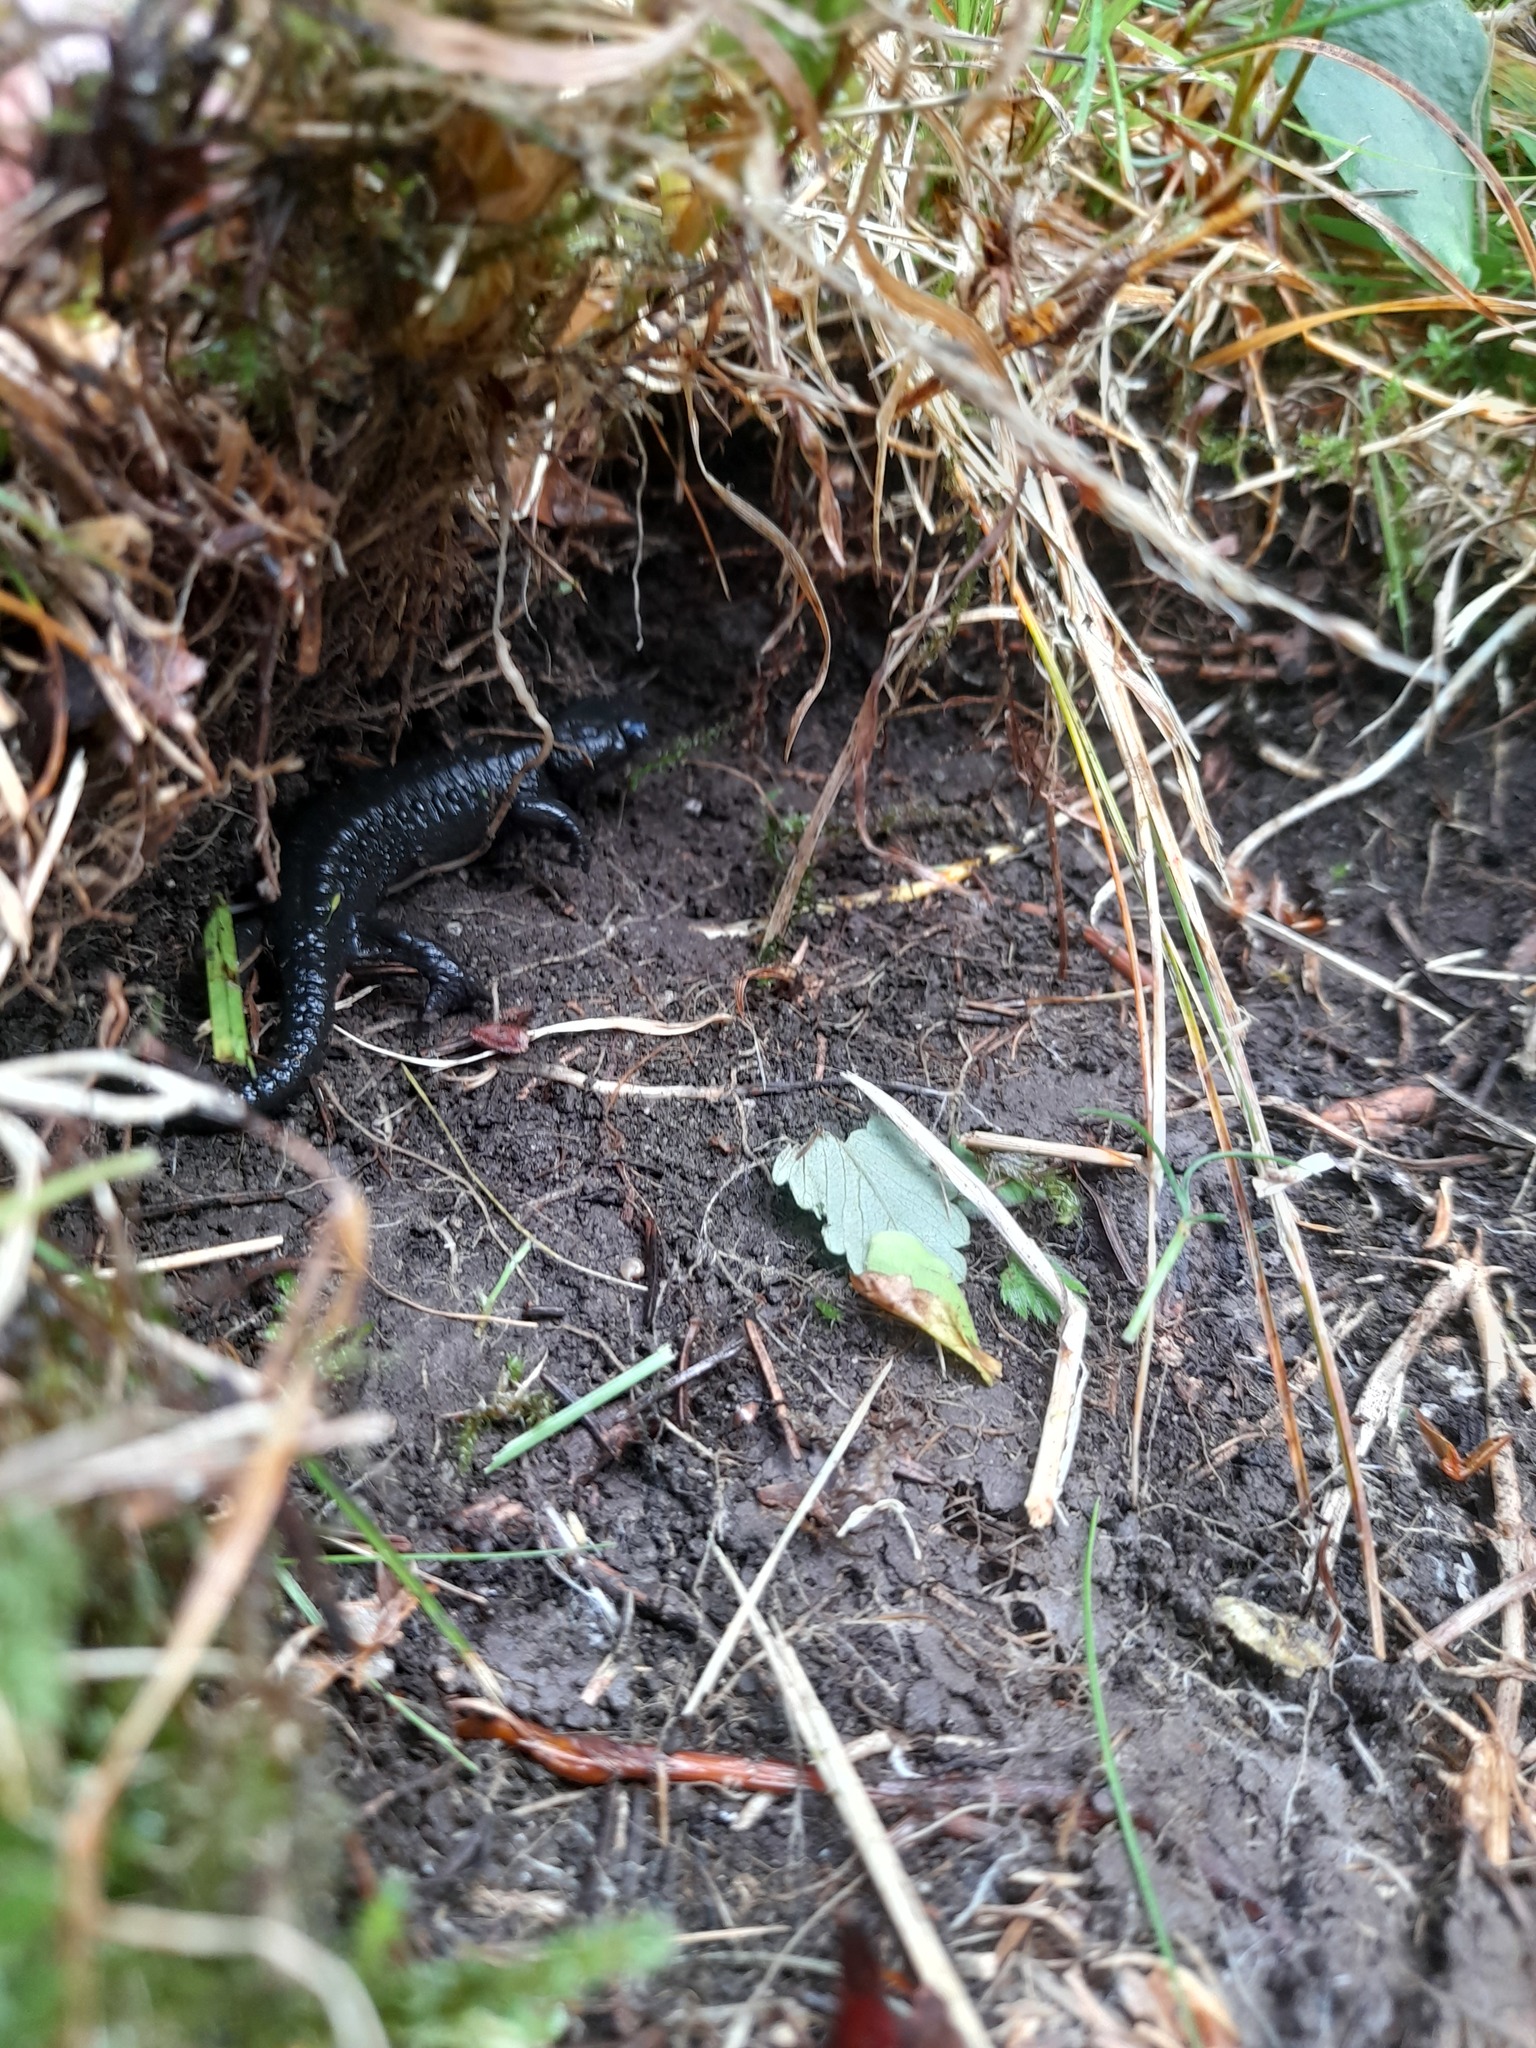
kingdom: Animalia
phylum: Chordata
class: Amphibia
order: Caudata
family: Salamandridae
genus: Salamandra
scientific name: Salamandra atra
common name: Alpine salamander
